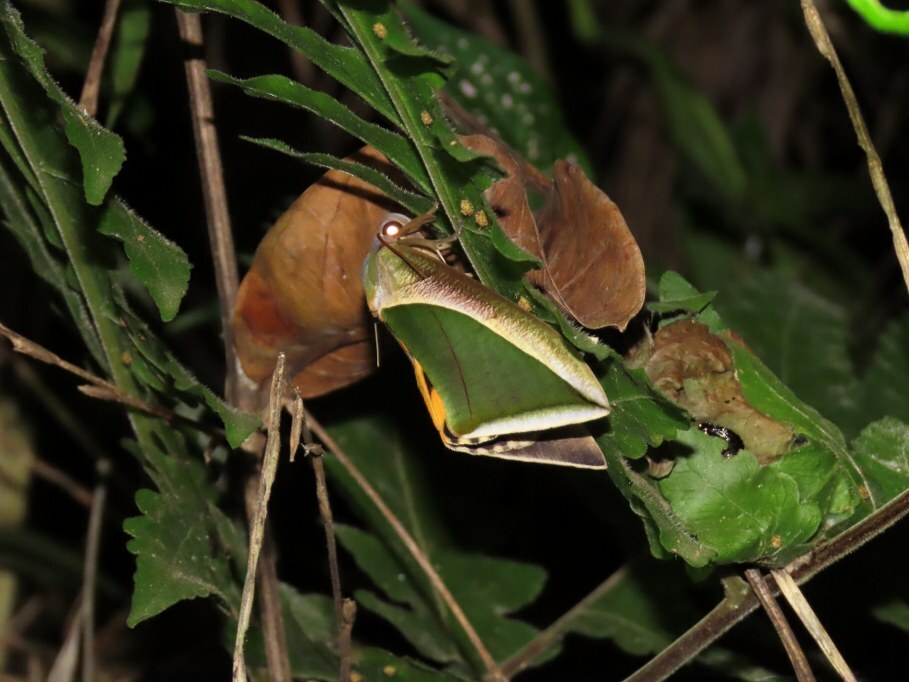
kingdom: Animalia
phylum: Arthropoda
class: Insecta
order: Lepidoptera
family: Erebidae
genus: Eudocima
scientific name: Eudocima salaminia
